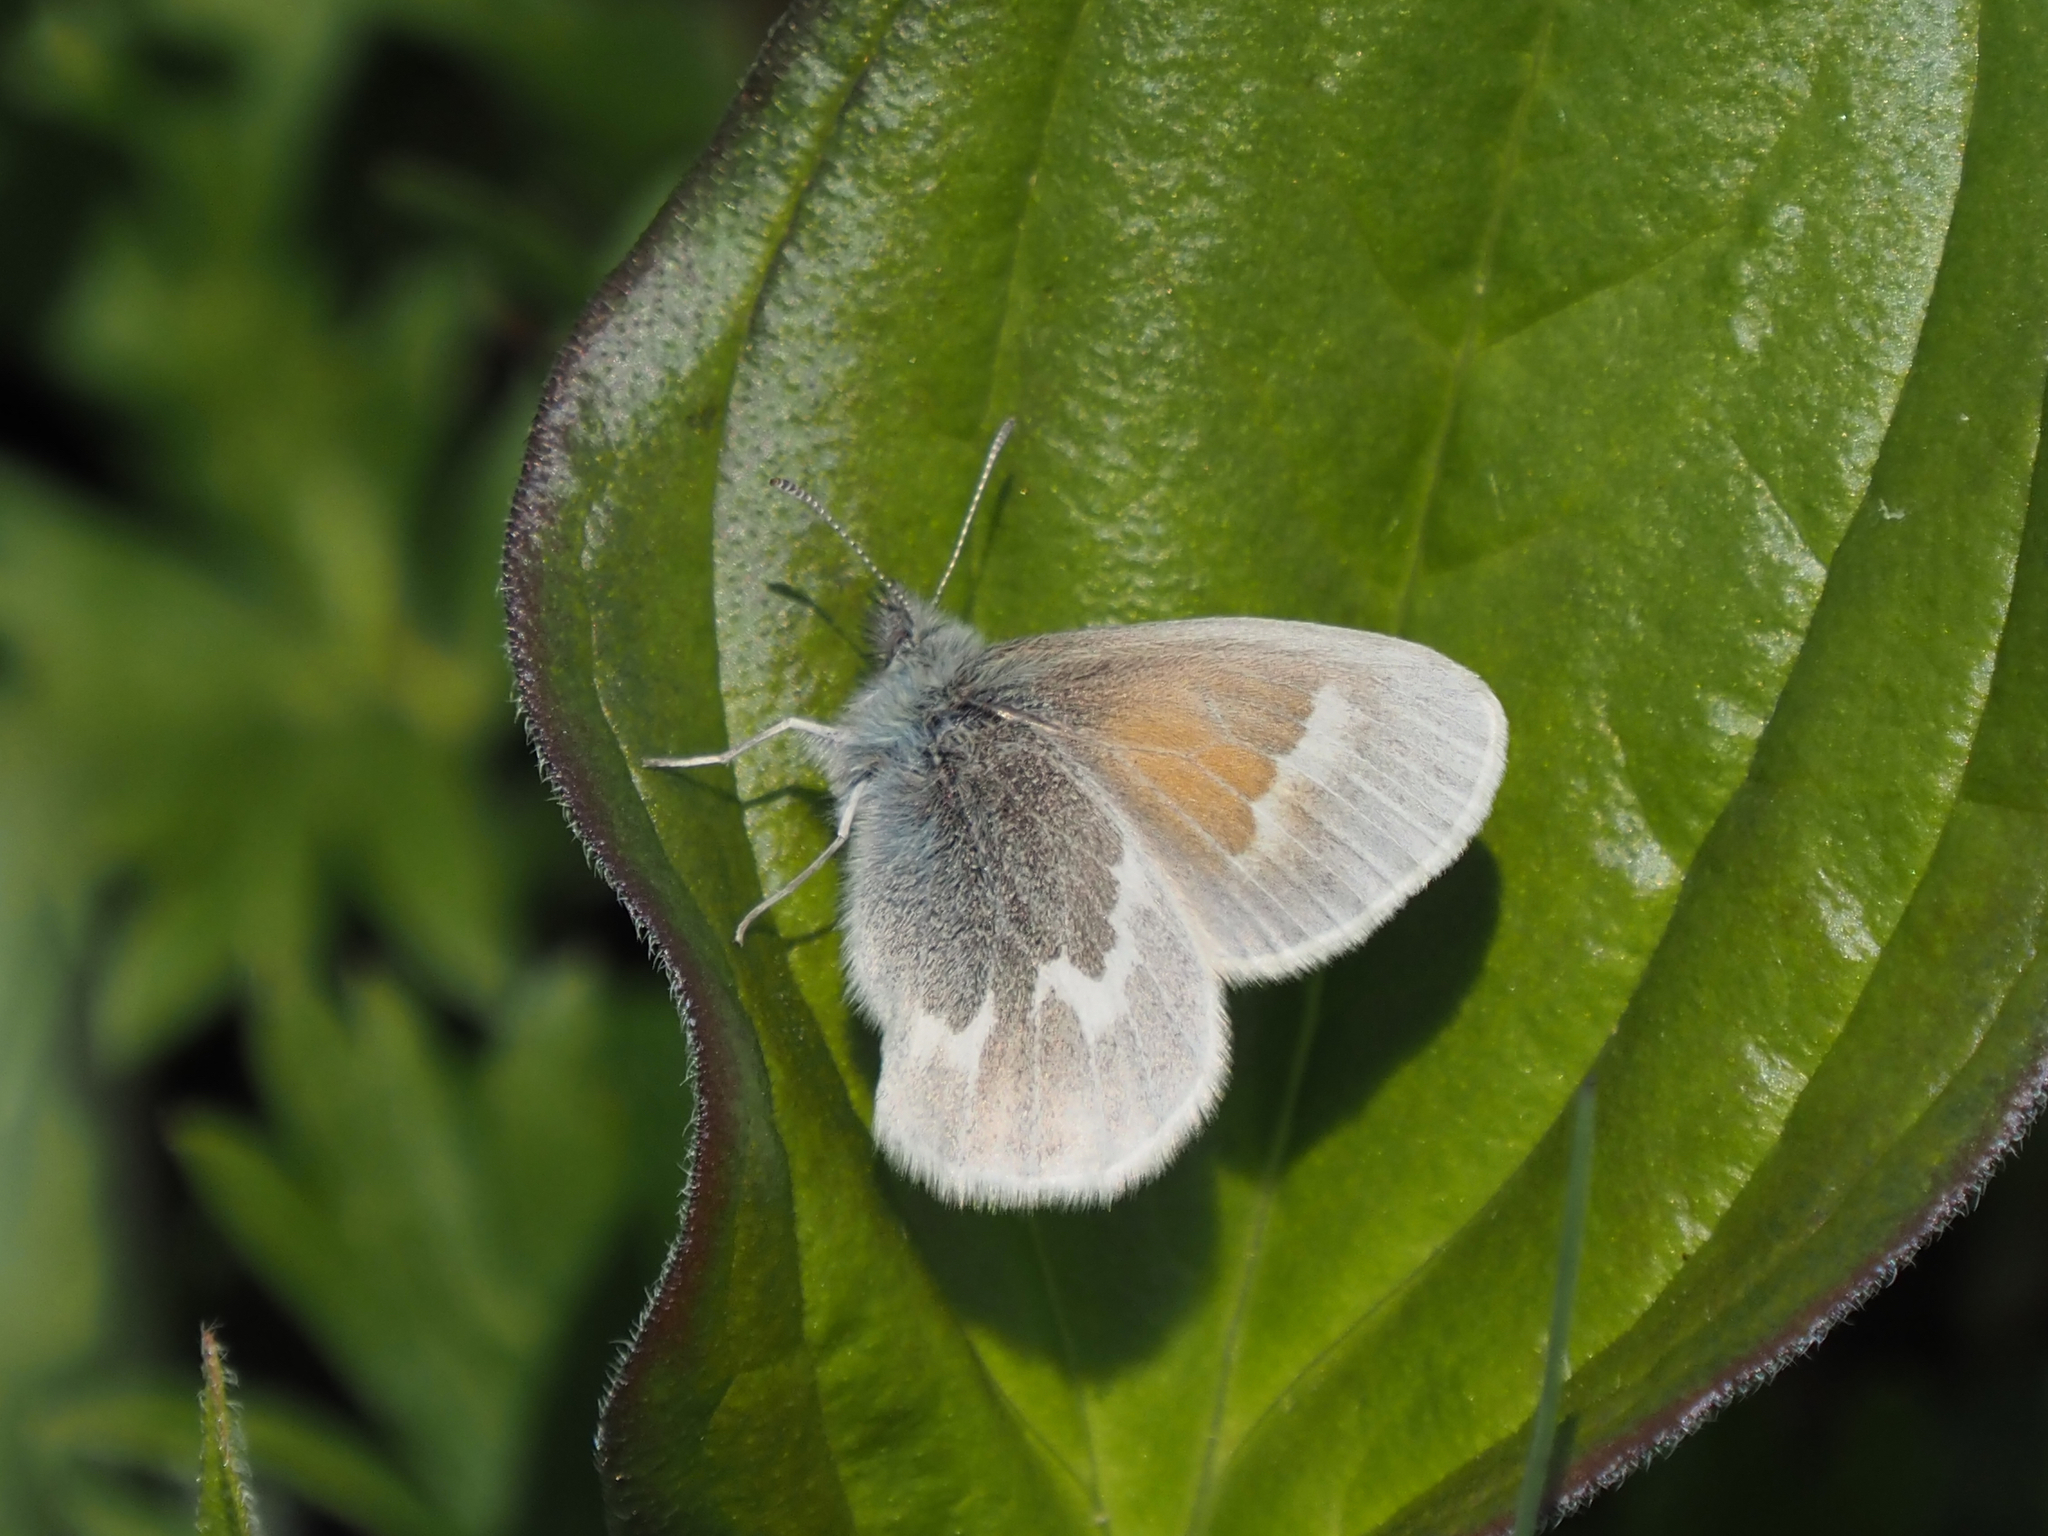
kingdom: Animalia
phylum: Arthropoda
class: Insecta
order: Lepidoptera
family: Nymphalidae
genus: Coenonympha
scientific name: Coenonympha tullia
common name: Large heath
